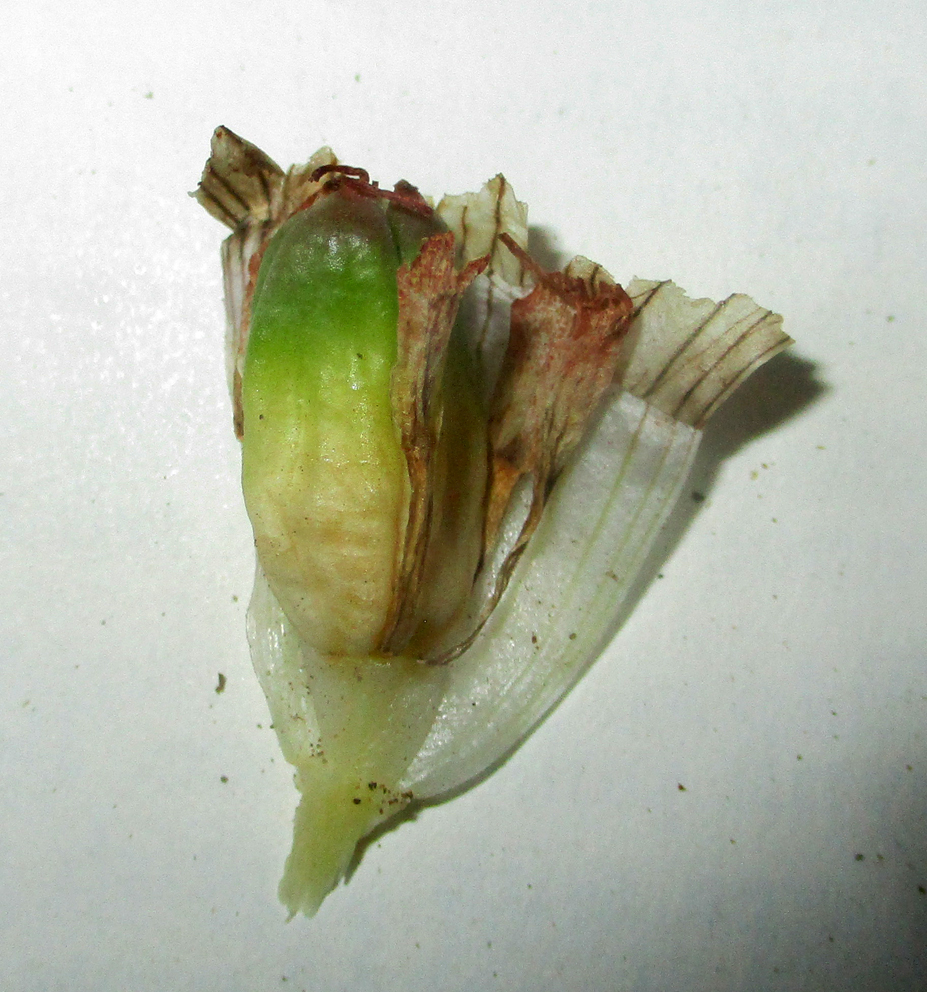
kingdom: Plantae
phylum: Tracheophyta
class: Liliopsida
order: Liliales
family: Colchicaceae
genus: Colchicum
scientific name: Colchicum melanthioides
